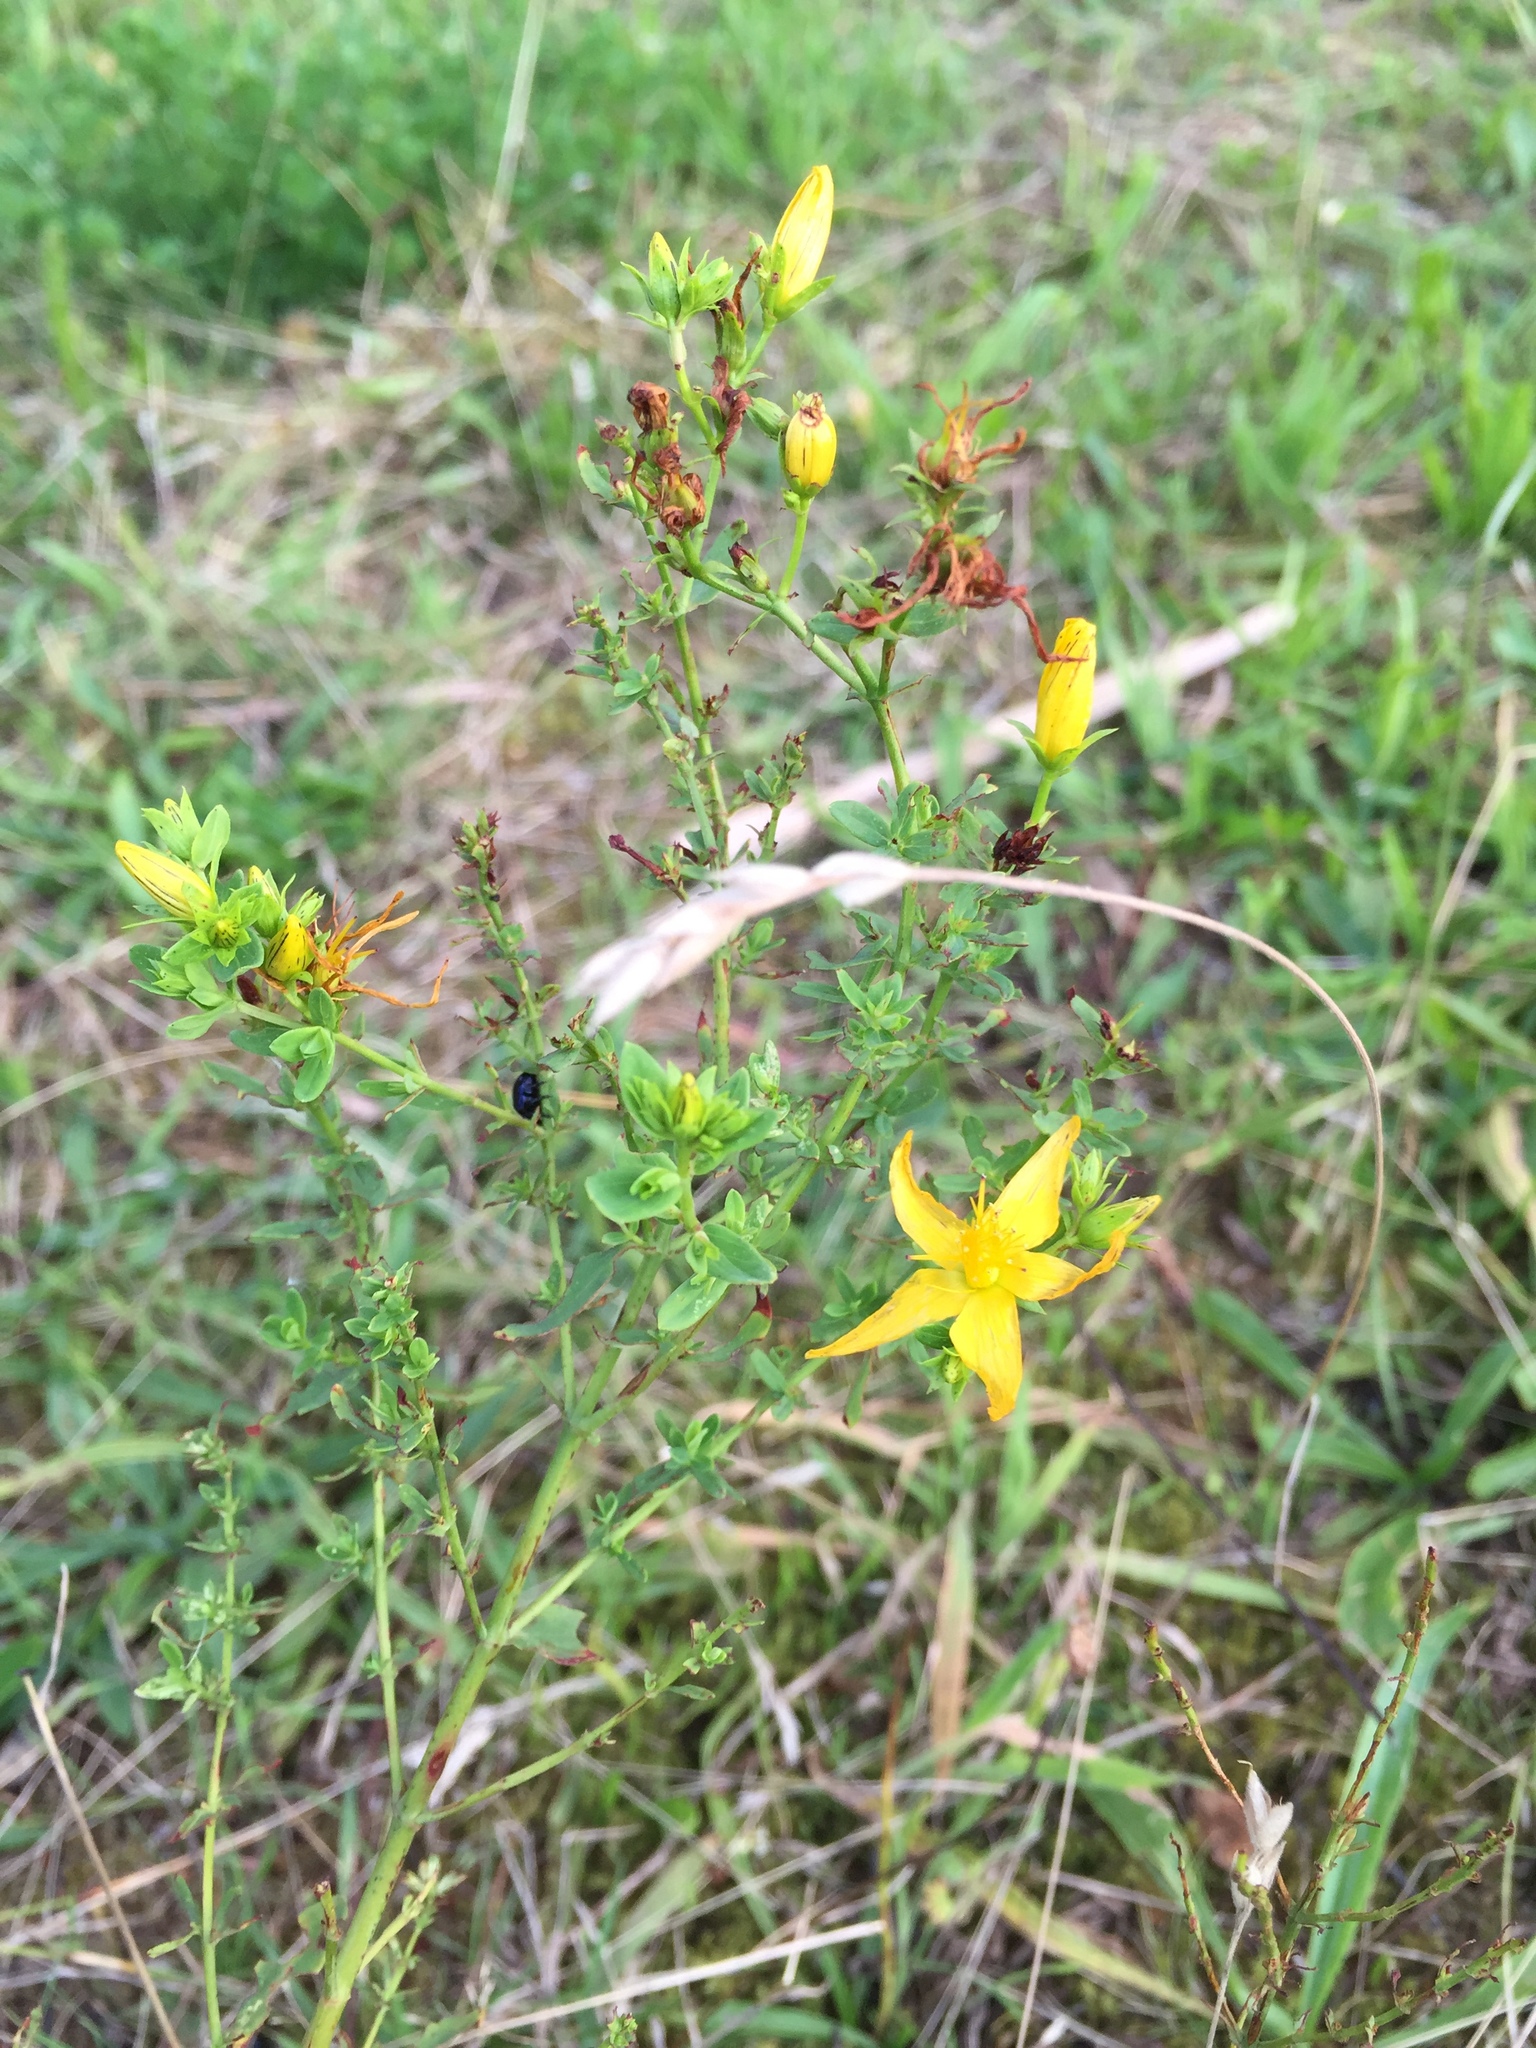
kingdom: Plantae
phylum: Tracheophyta
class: Magnoliopsida
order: Malpighiales
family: Hypericaceae
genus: Hypericum
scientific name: Hypericum perforatum
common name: Common st. johnswort
